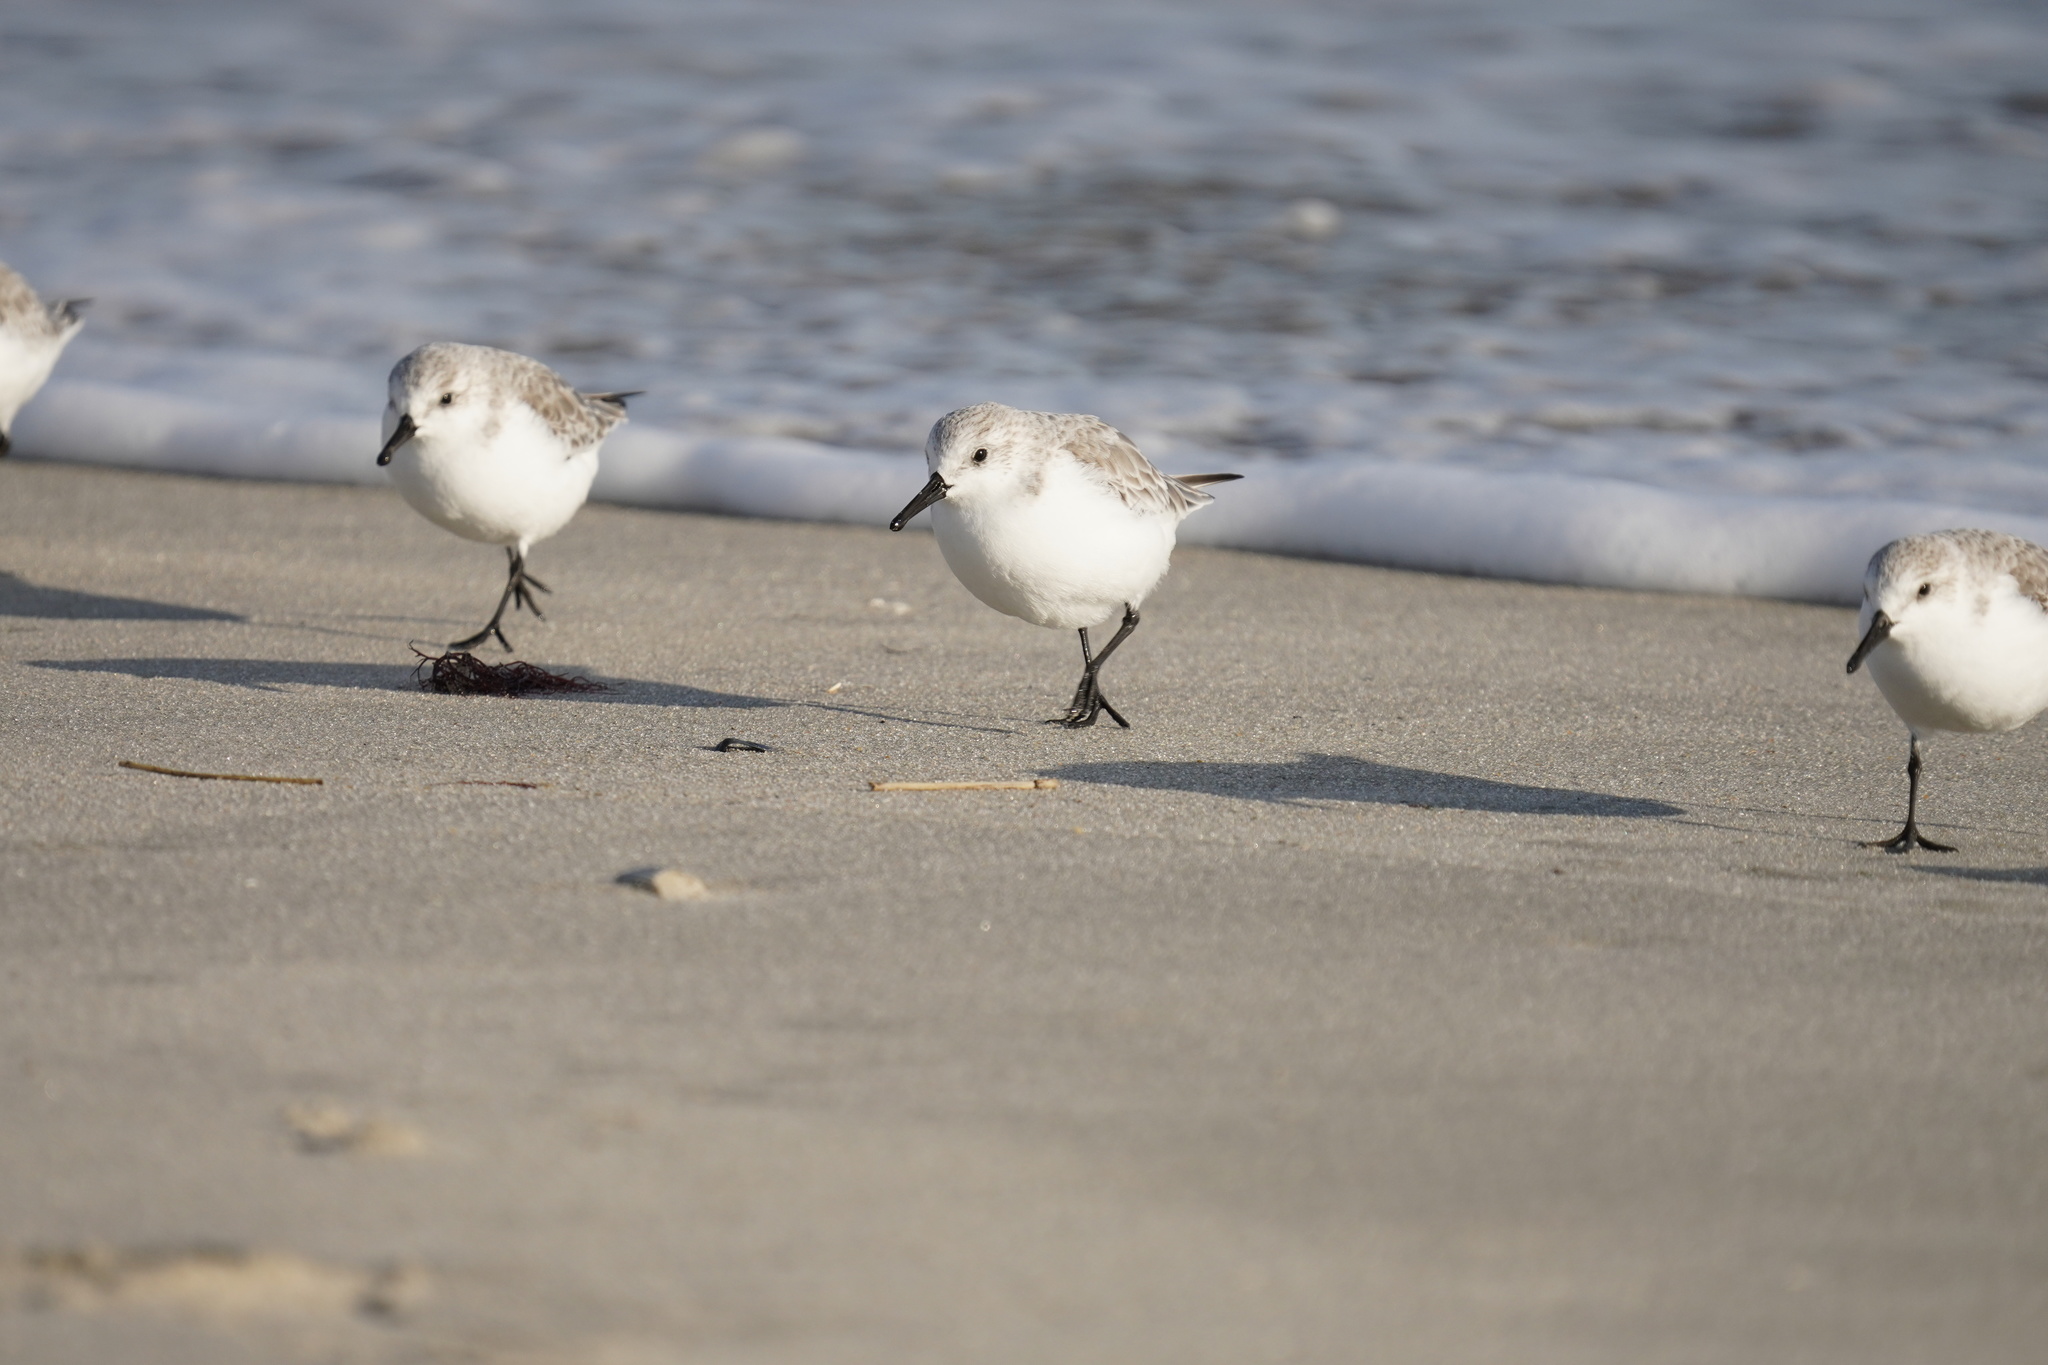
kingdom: Animalia
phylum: Chordata
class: Aves
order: Charadriiformes
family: Scolopacidae
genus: Calidris
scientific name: Calidris alba
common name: Sanderling
